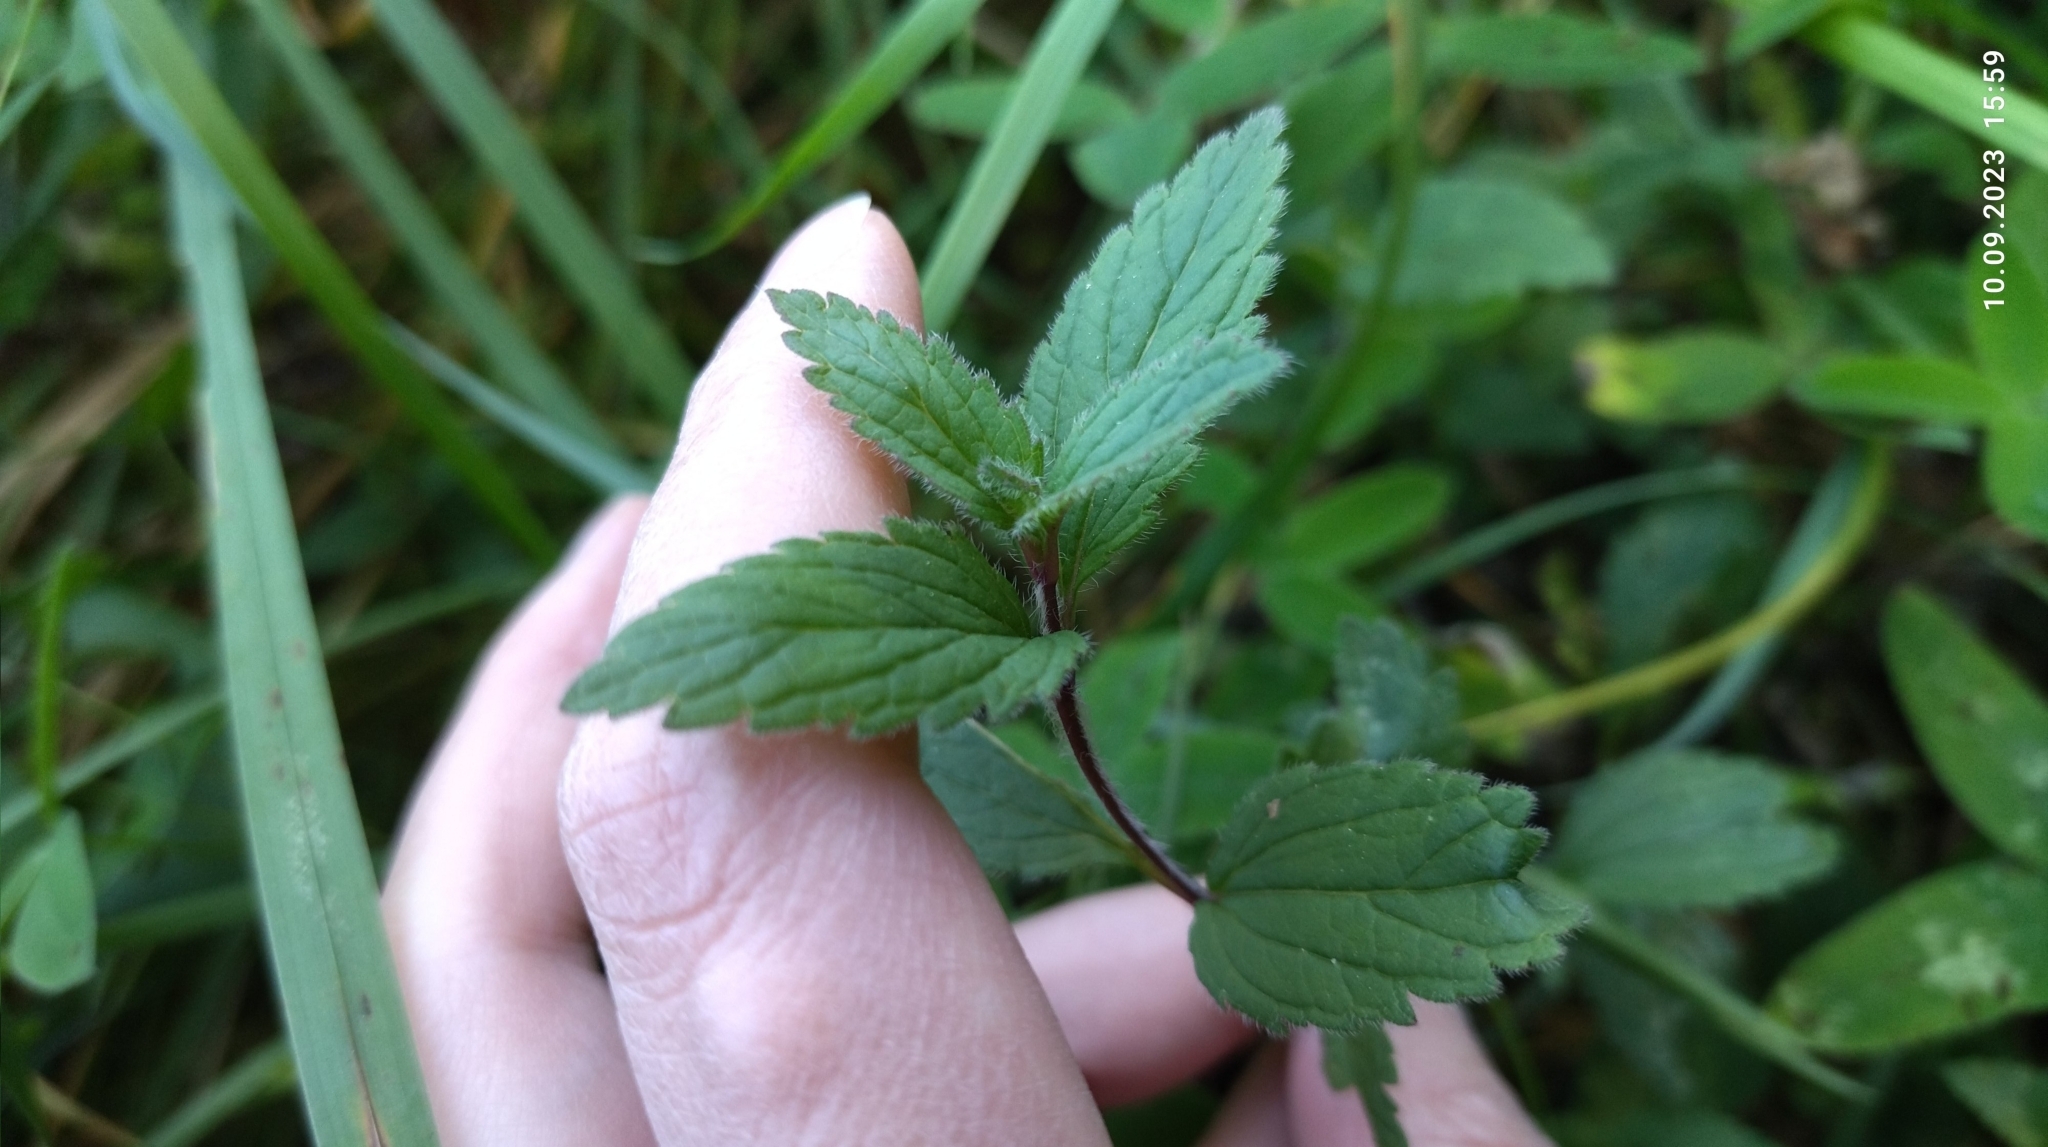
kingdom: Plantae
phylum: Tracheophyta
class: Magnoliopsida
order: Lamiales
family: Plantaginaceae
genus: Veronica
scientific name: Veronica chamaedrys
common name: Germander speedwell
